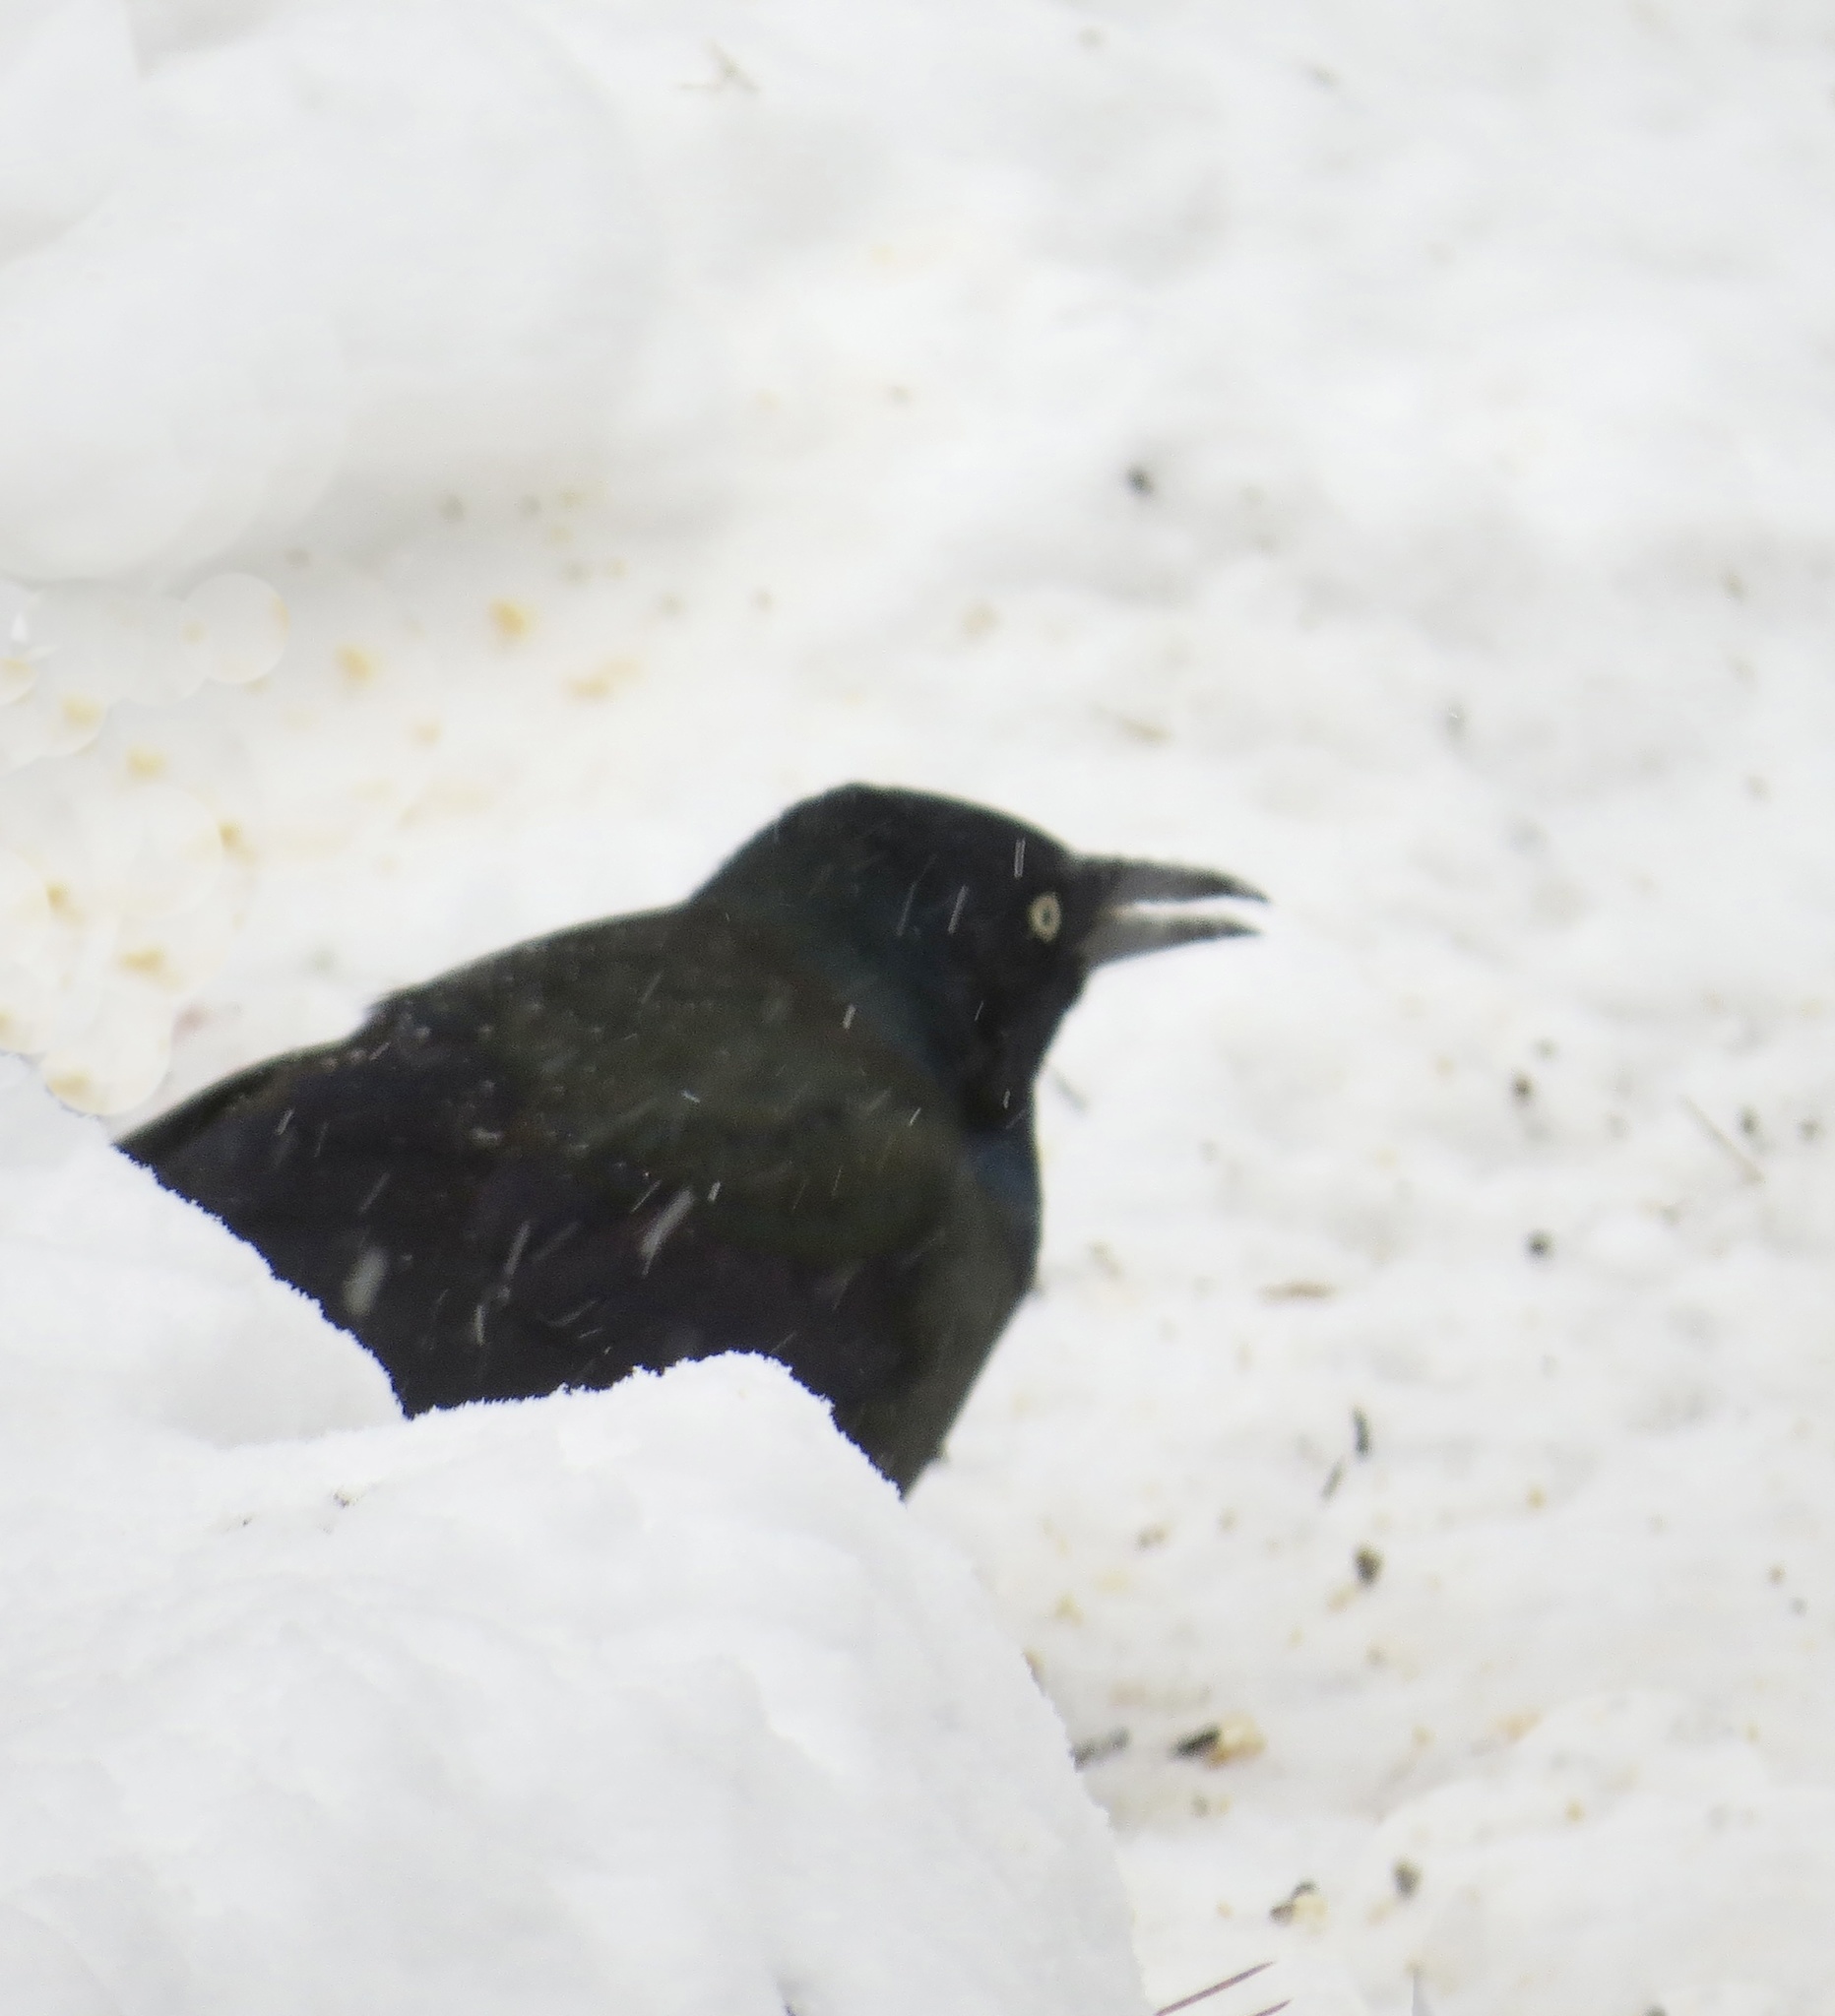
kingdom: Animalia
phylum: Chordata
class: Aves
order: Passeriformes
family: Icteridae
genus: Quiscalus
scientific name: Quiscalus quiscula
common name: Common grackle
